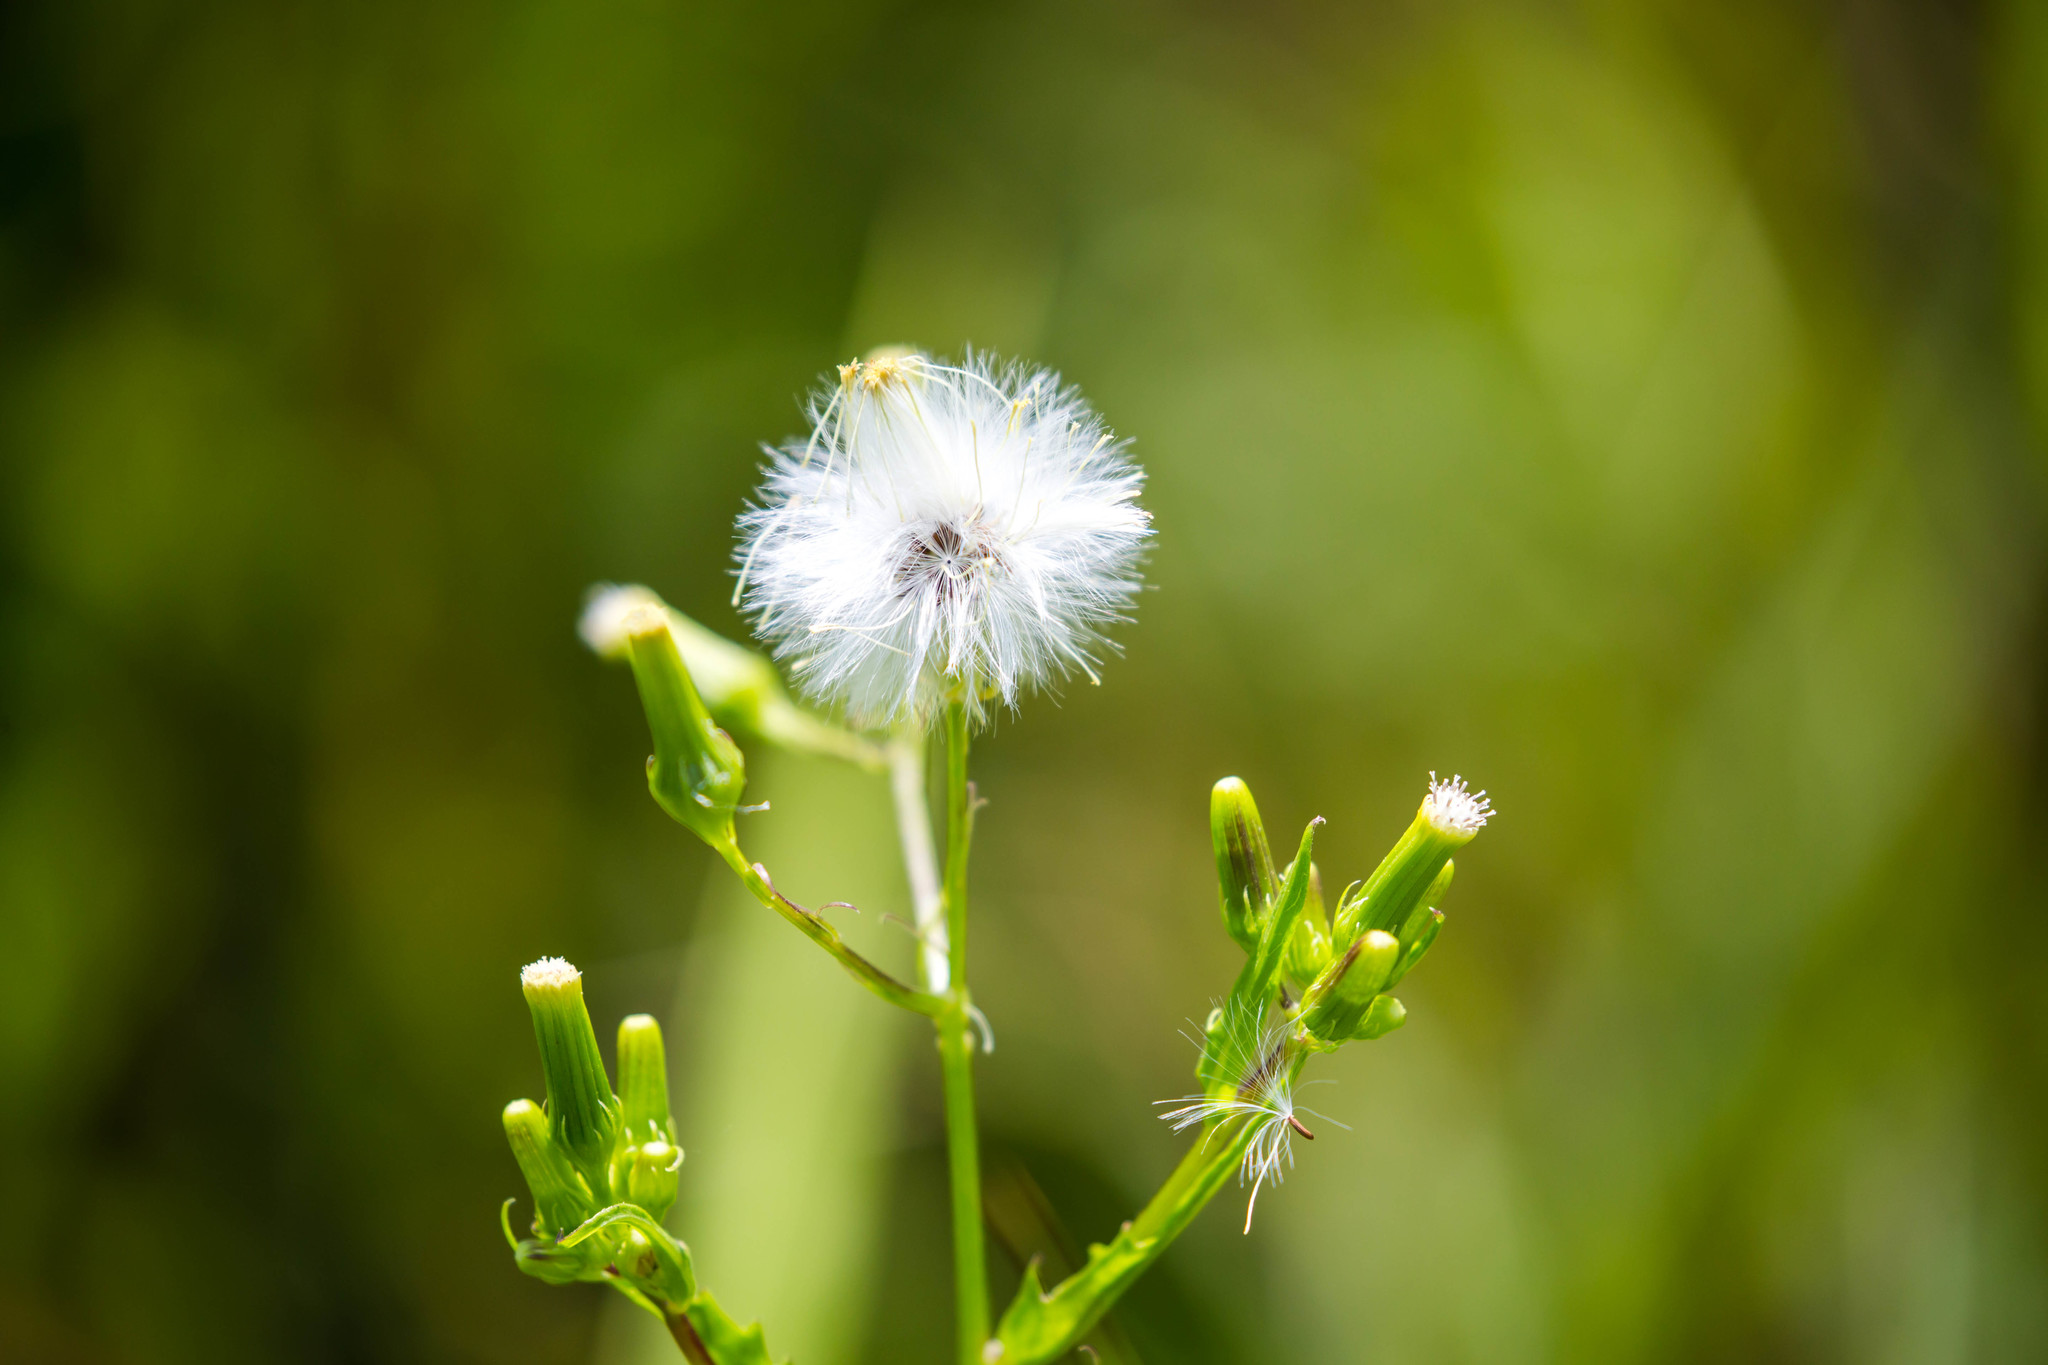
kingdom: Plantae
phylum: Tracheophyta
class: Magnoliopsida
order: Asterales
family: Asteraceae
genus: Erechtites
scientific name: Erechtites hieraciifolius
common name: American burnweed
